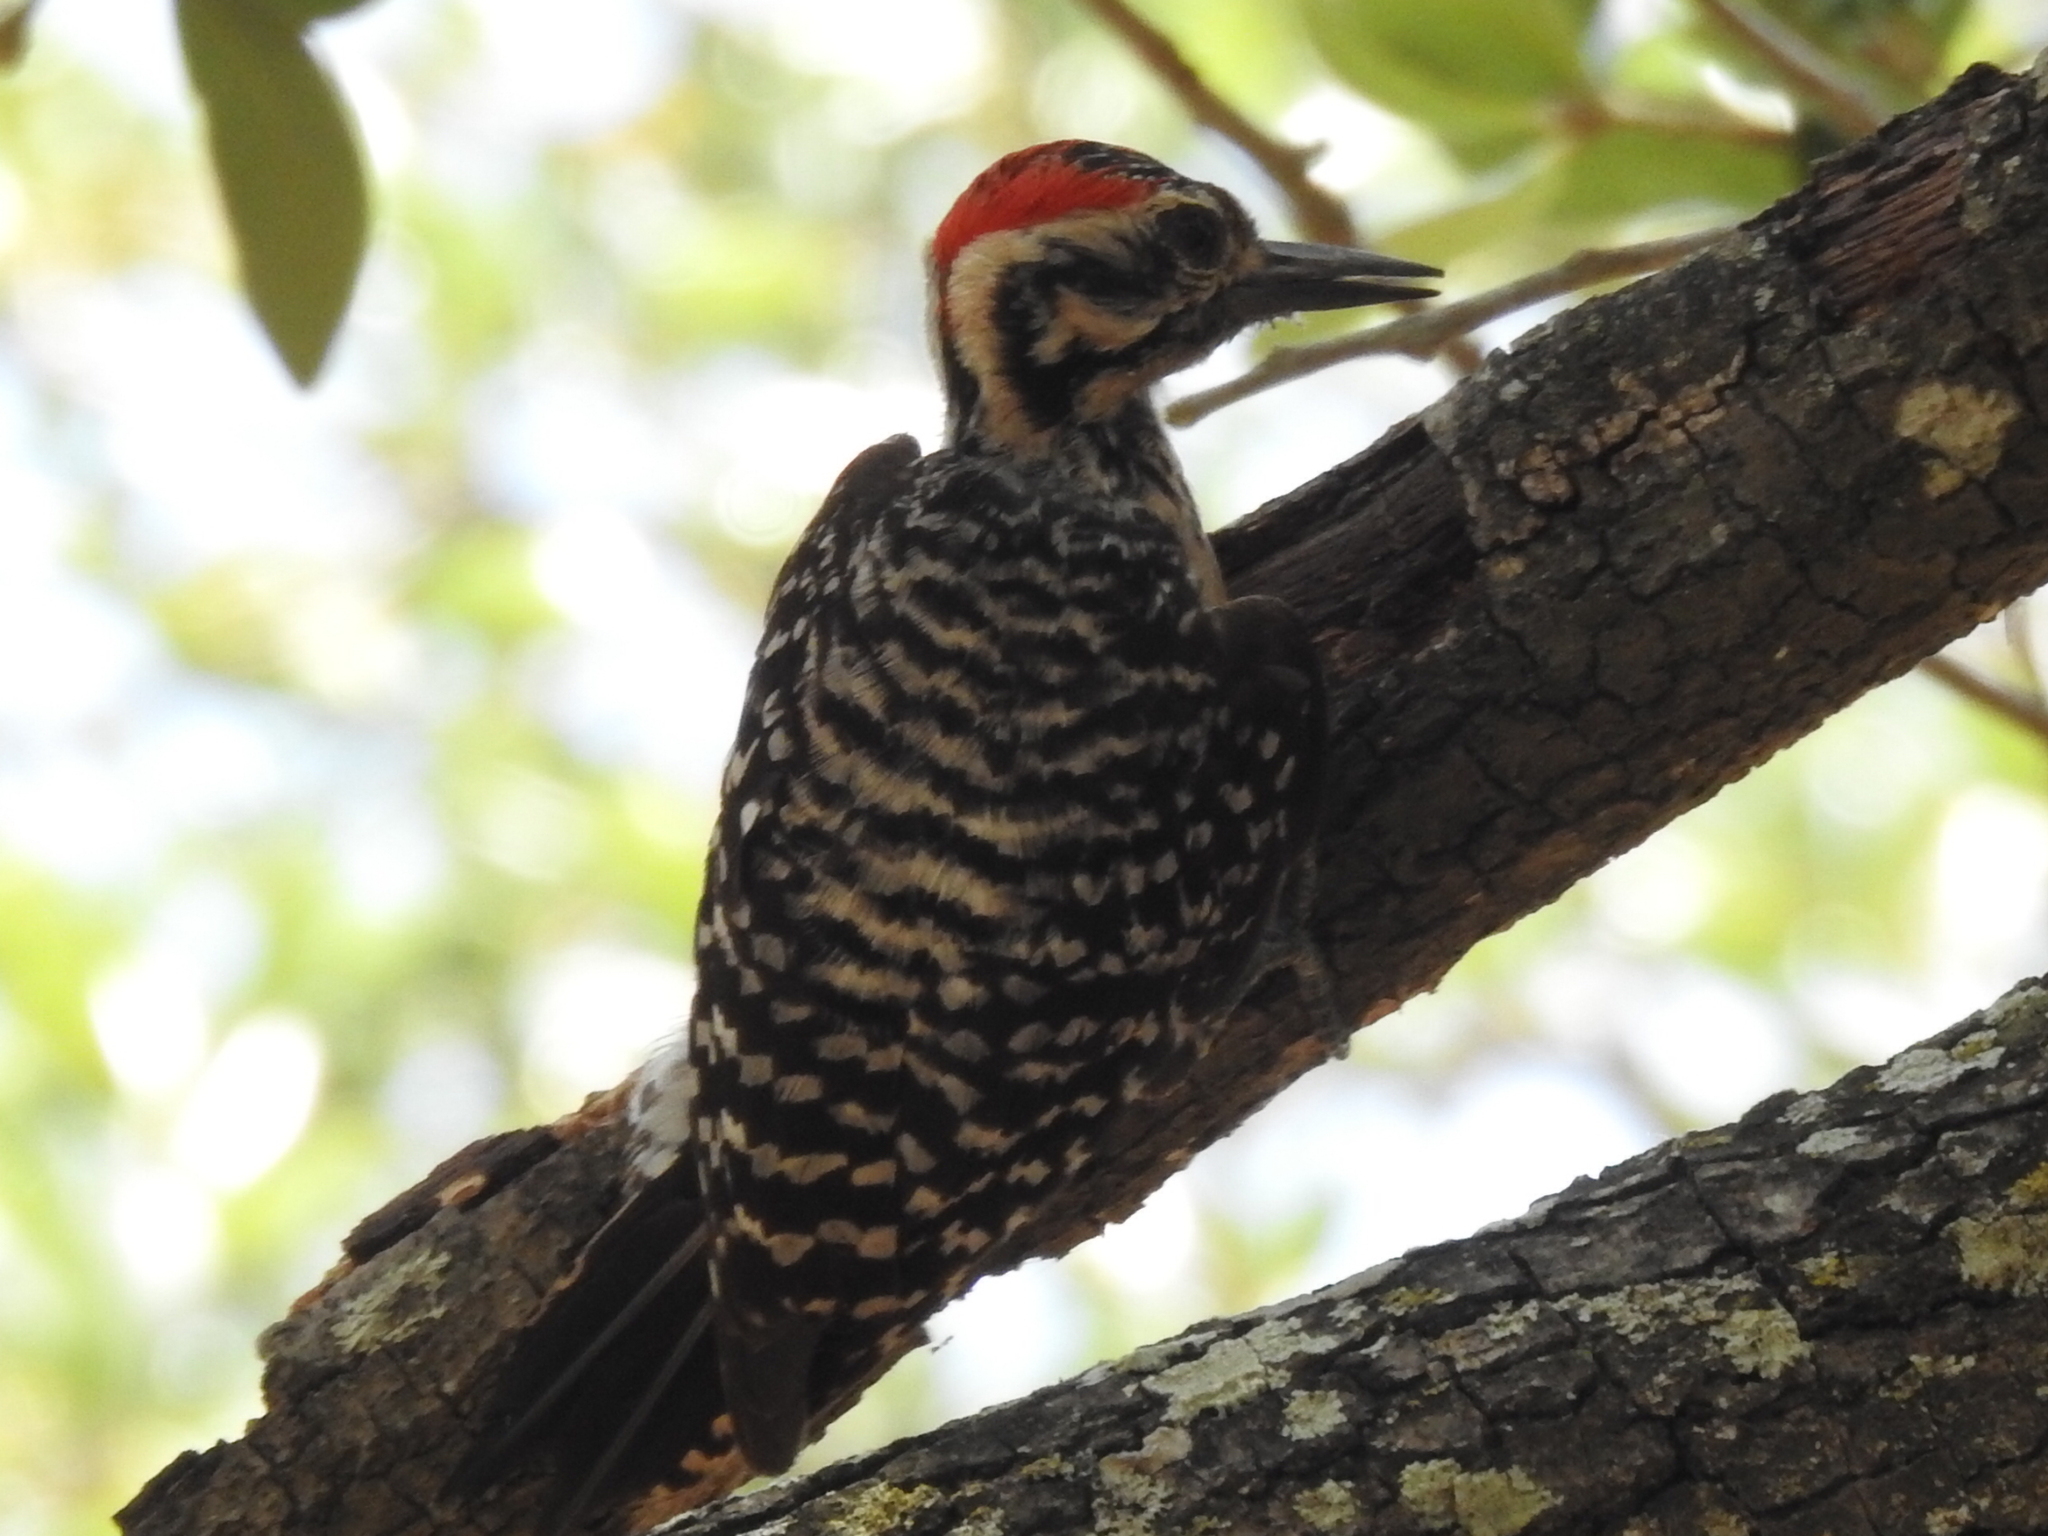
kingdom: Animalia
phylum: Chordata
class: Aves
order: Piciformes
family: Picidae
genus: Dryobates
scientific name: Dryobates scalaris
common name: Ladder-backed woodpecker
